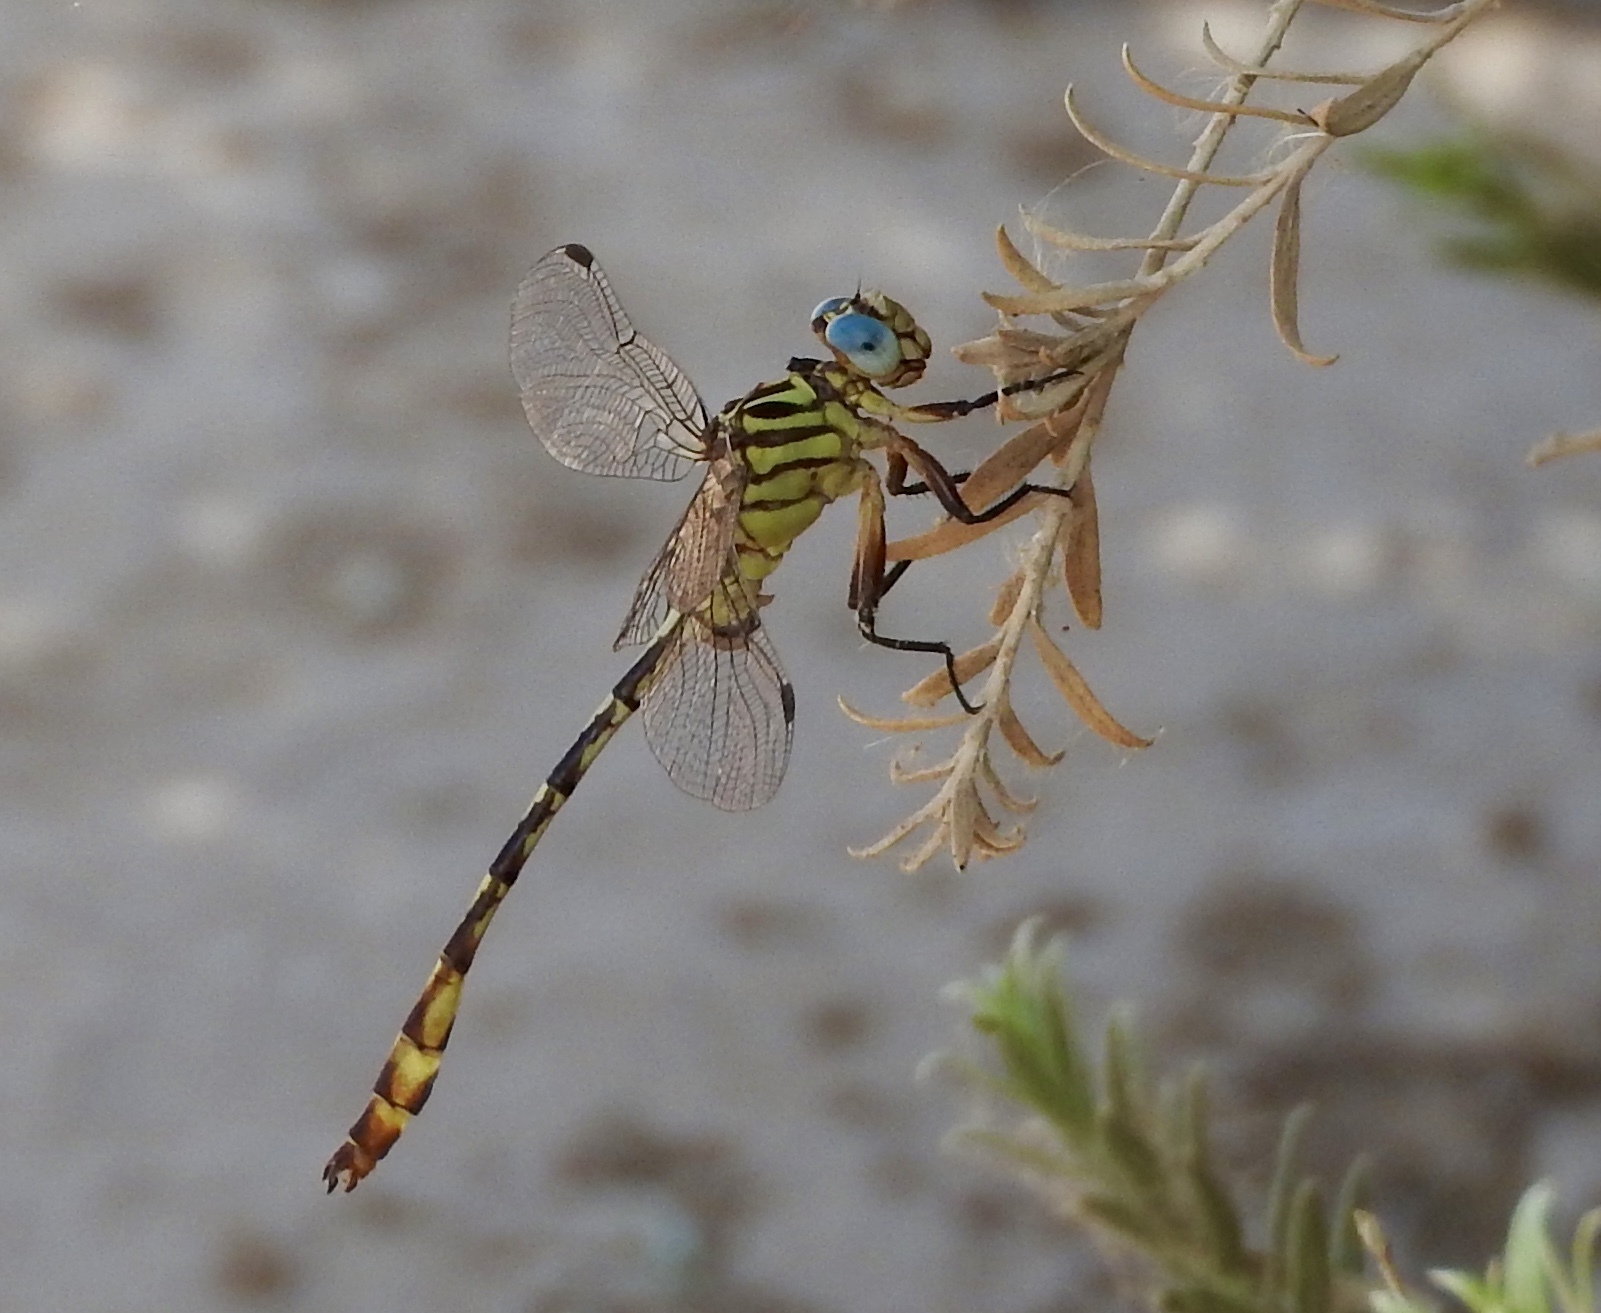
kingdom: Animalia
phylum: Arthropoda
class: Insecta
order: Odonata
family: Gomphidae
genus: Stylurus
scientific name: Stylurus plagiatus
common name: Russet-tipped clubtail
